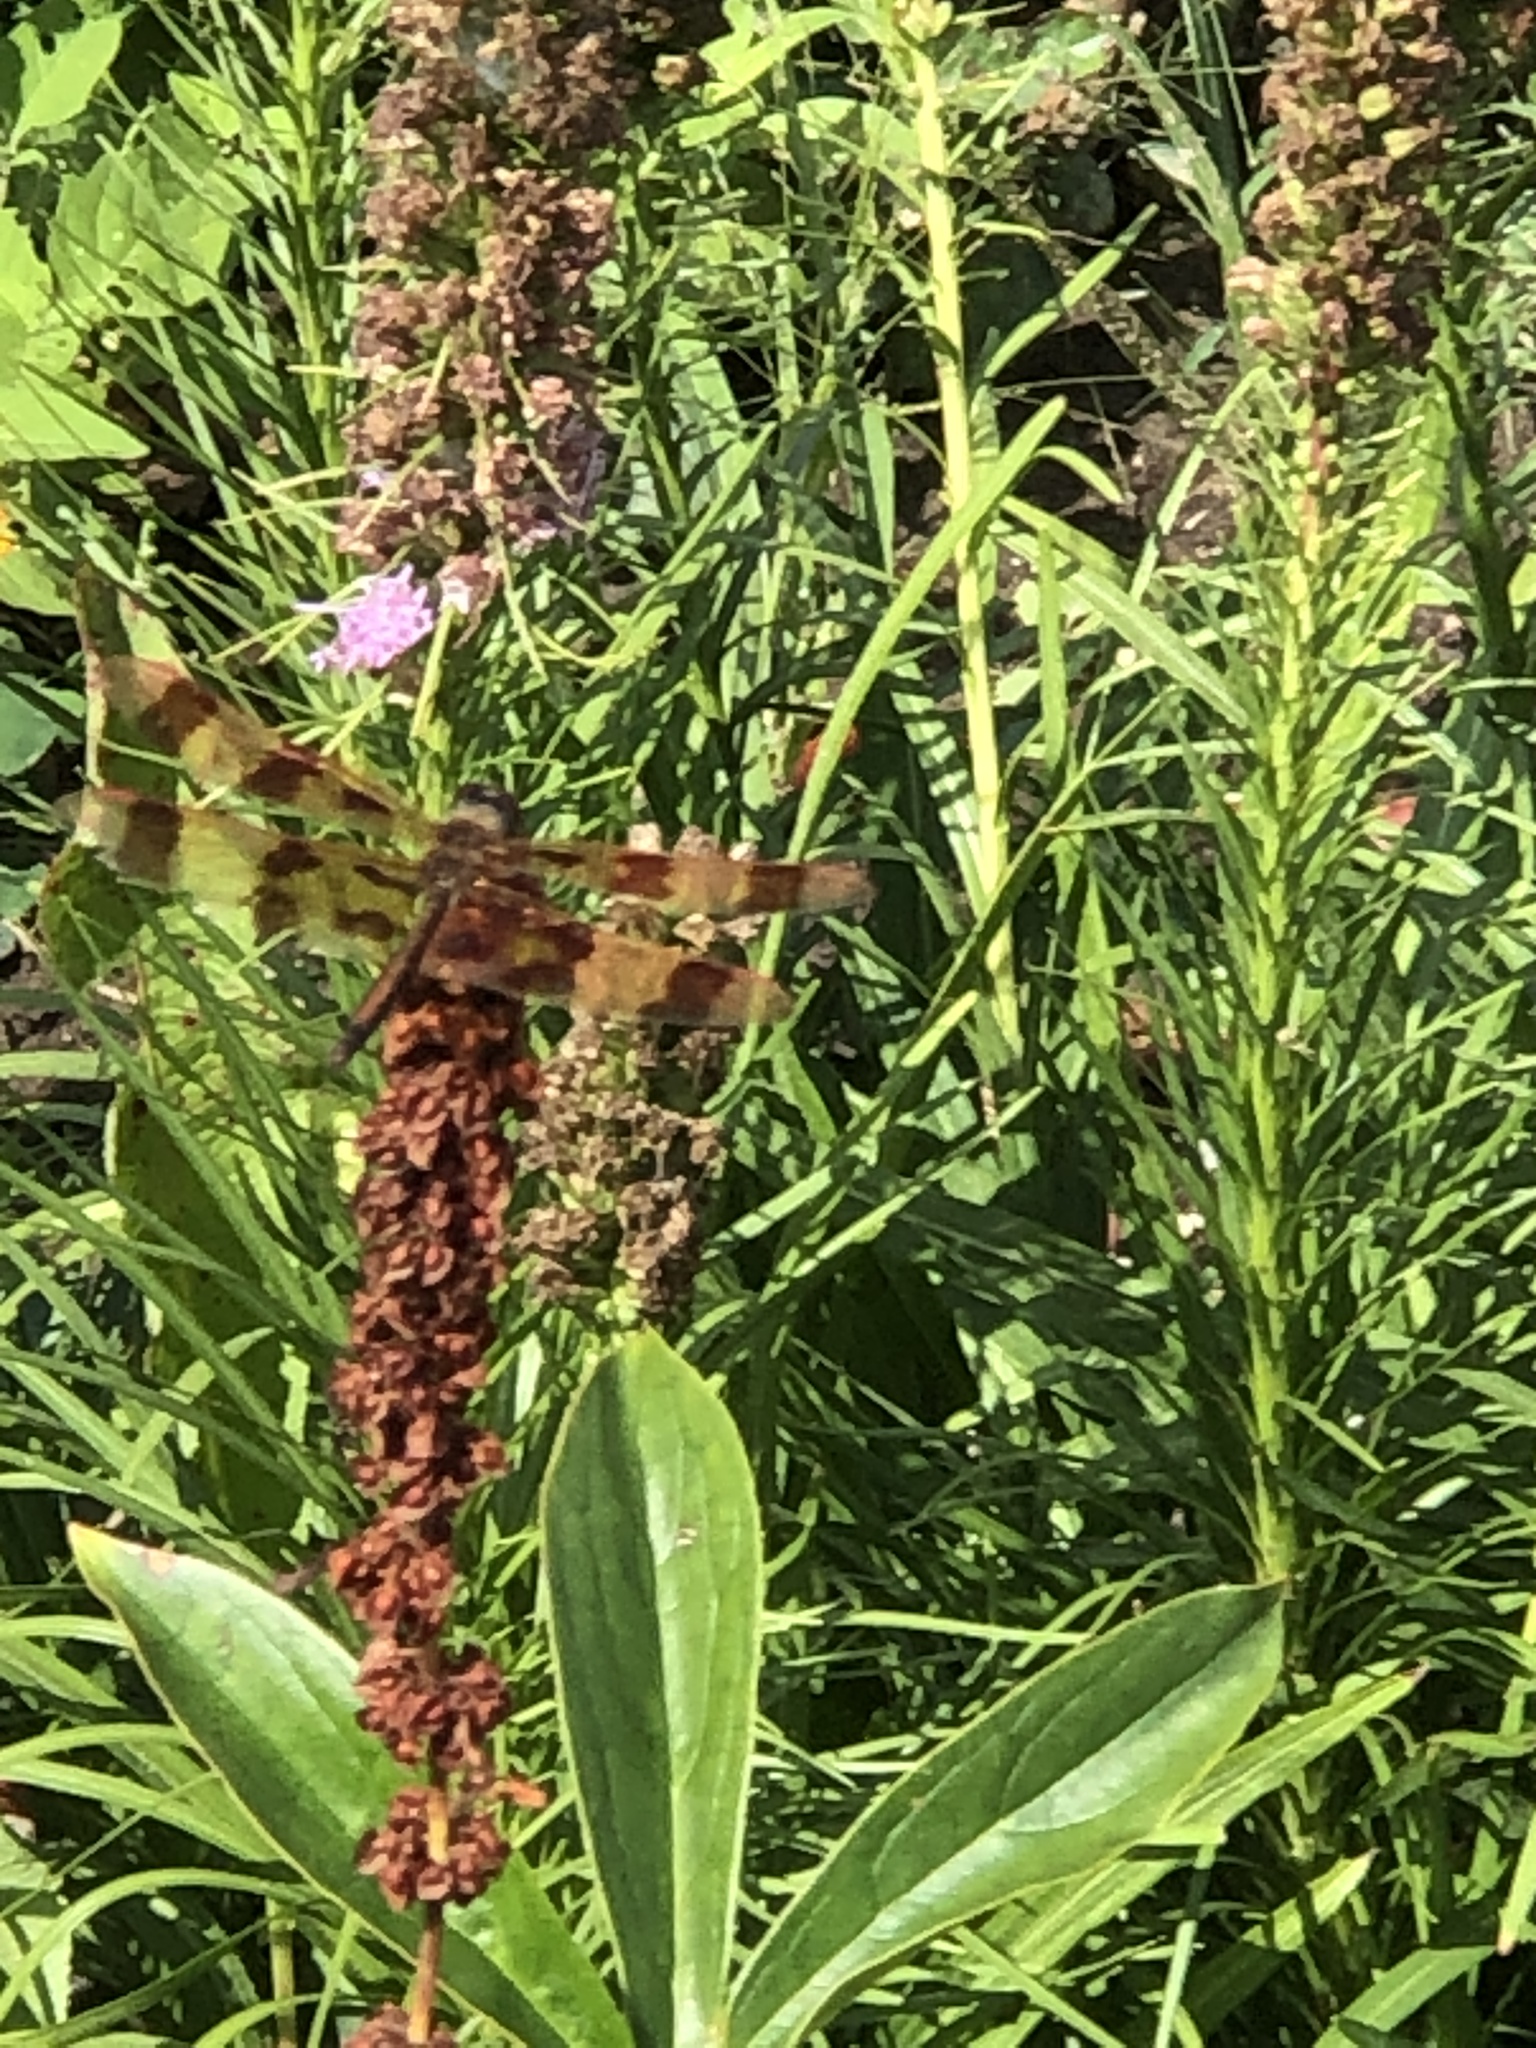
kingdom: Animalia
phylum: Arthropoda
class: Insecta
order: Odonata
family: Libellulidae
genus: Celithemis
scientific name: Celithemis eponina
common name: Halloween pennant
